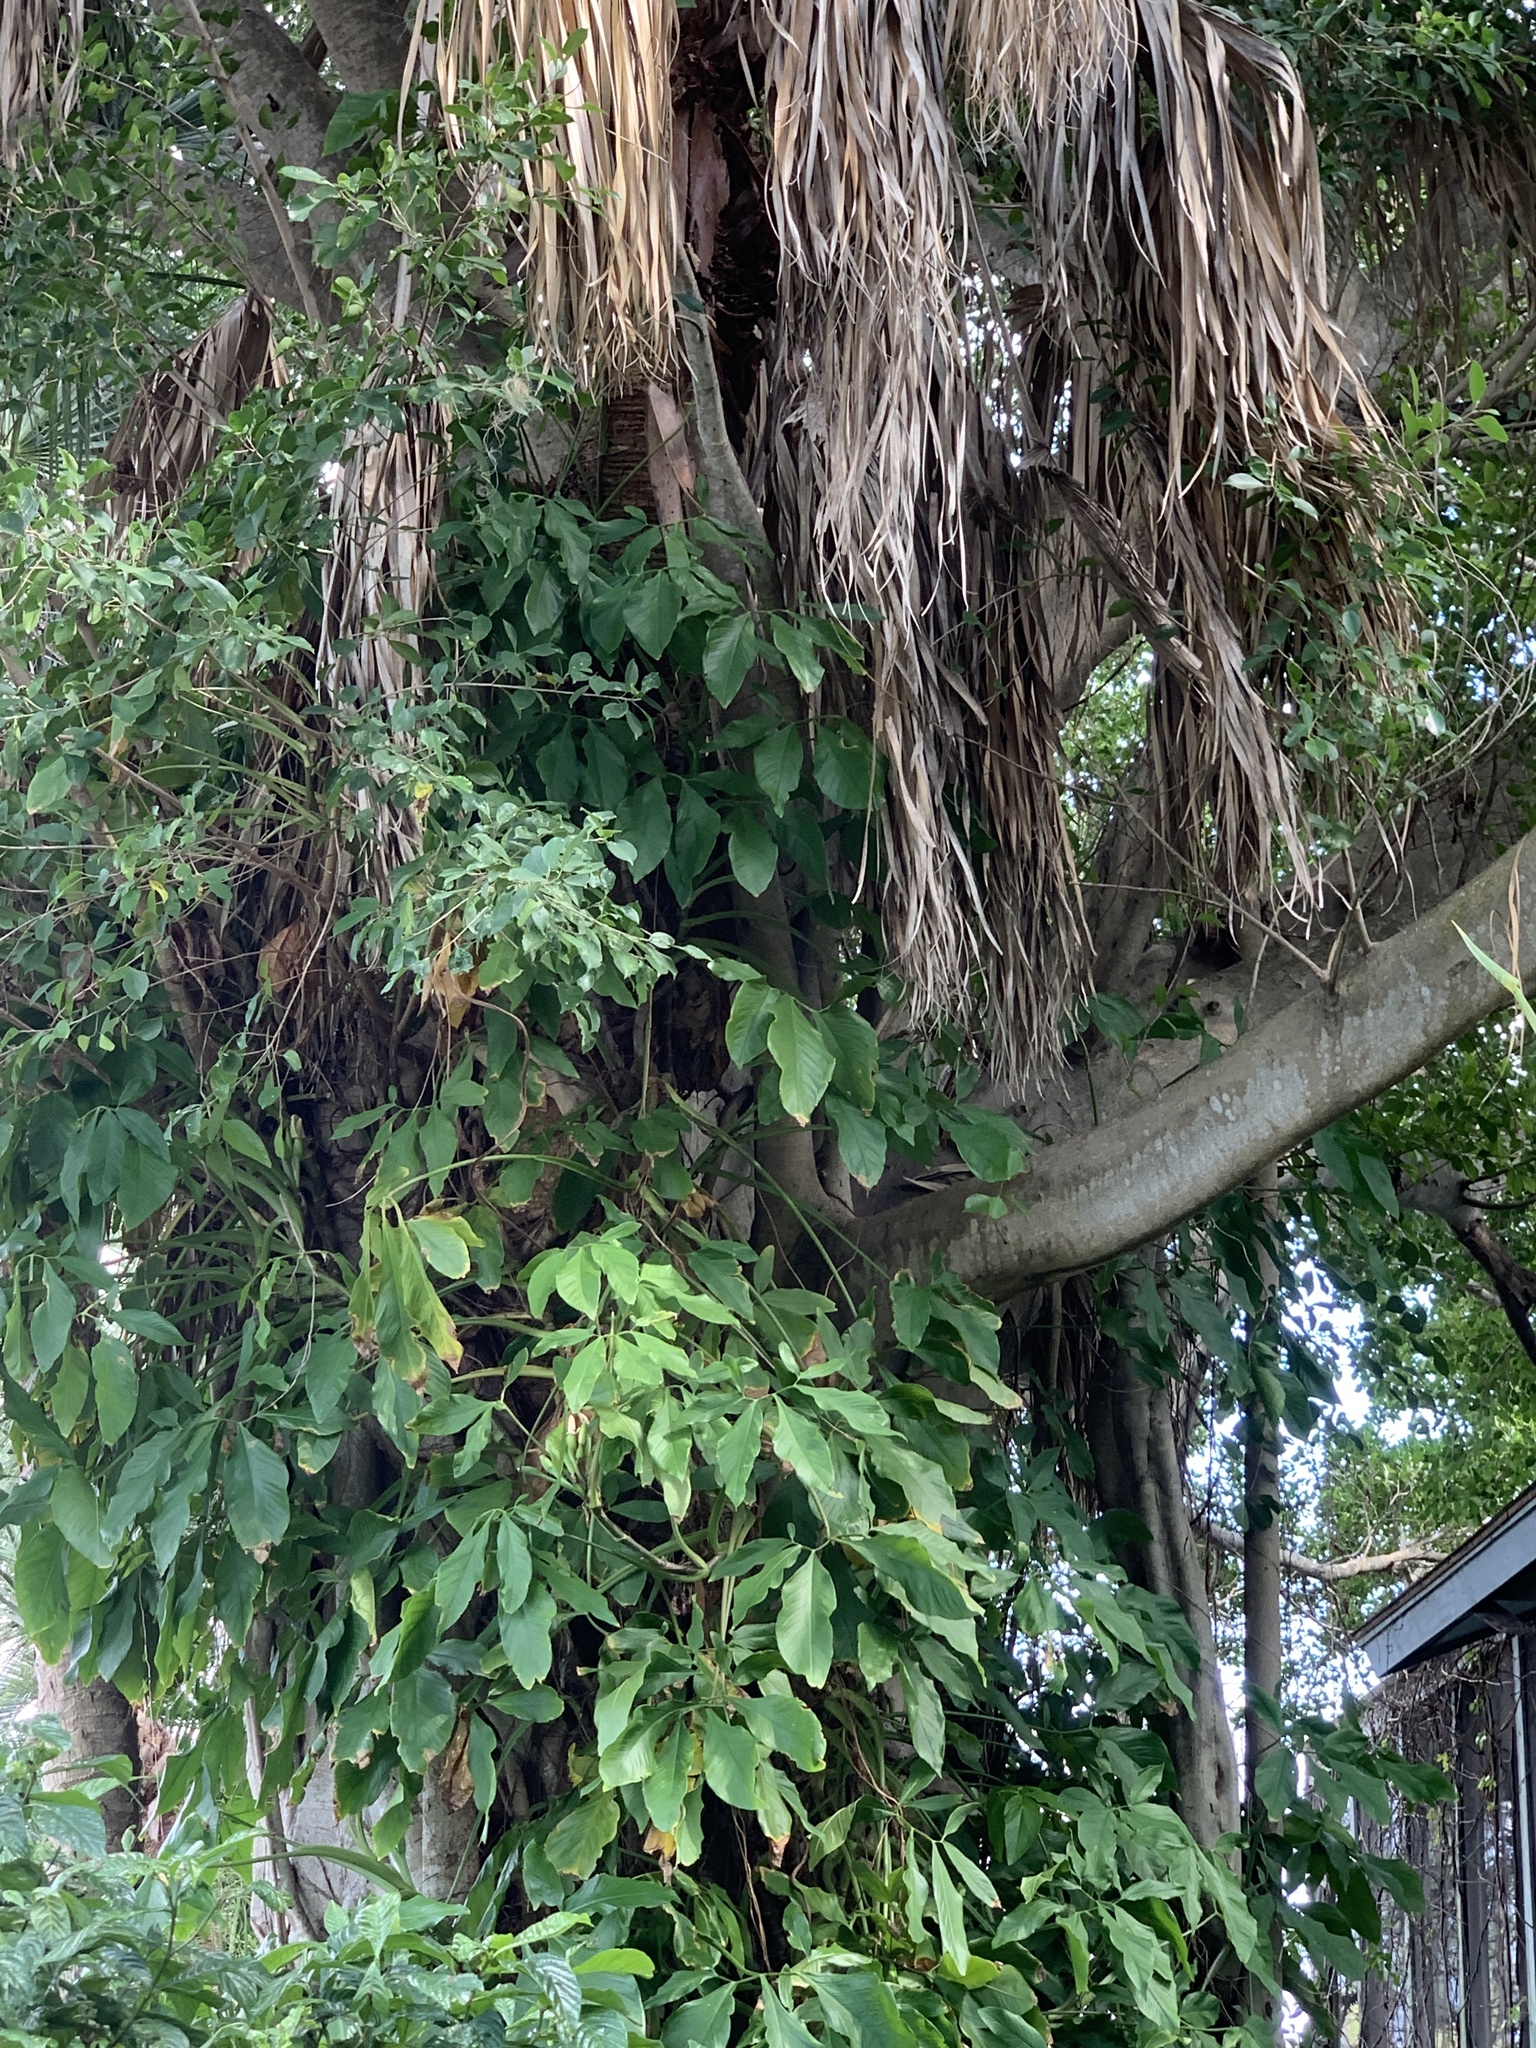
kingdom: Plantae
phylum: Tracheophyta
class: Liliopsida
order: Alismatales
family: Araceae
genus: Syngonium
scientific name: Syngonium podophyllum
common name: American evergreen
